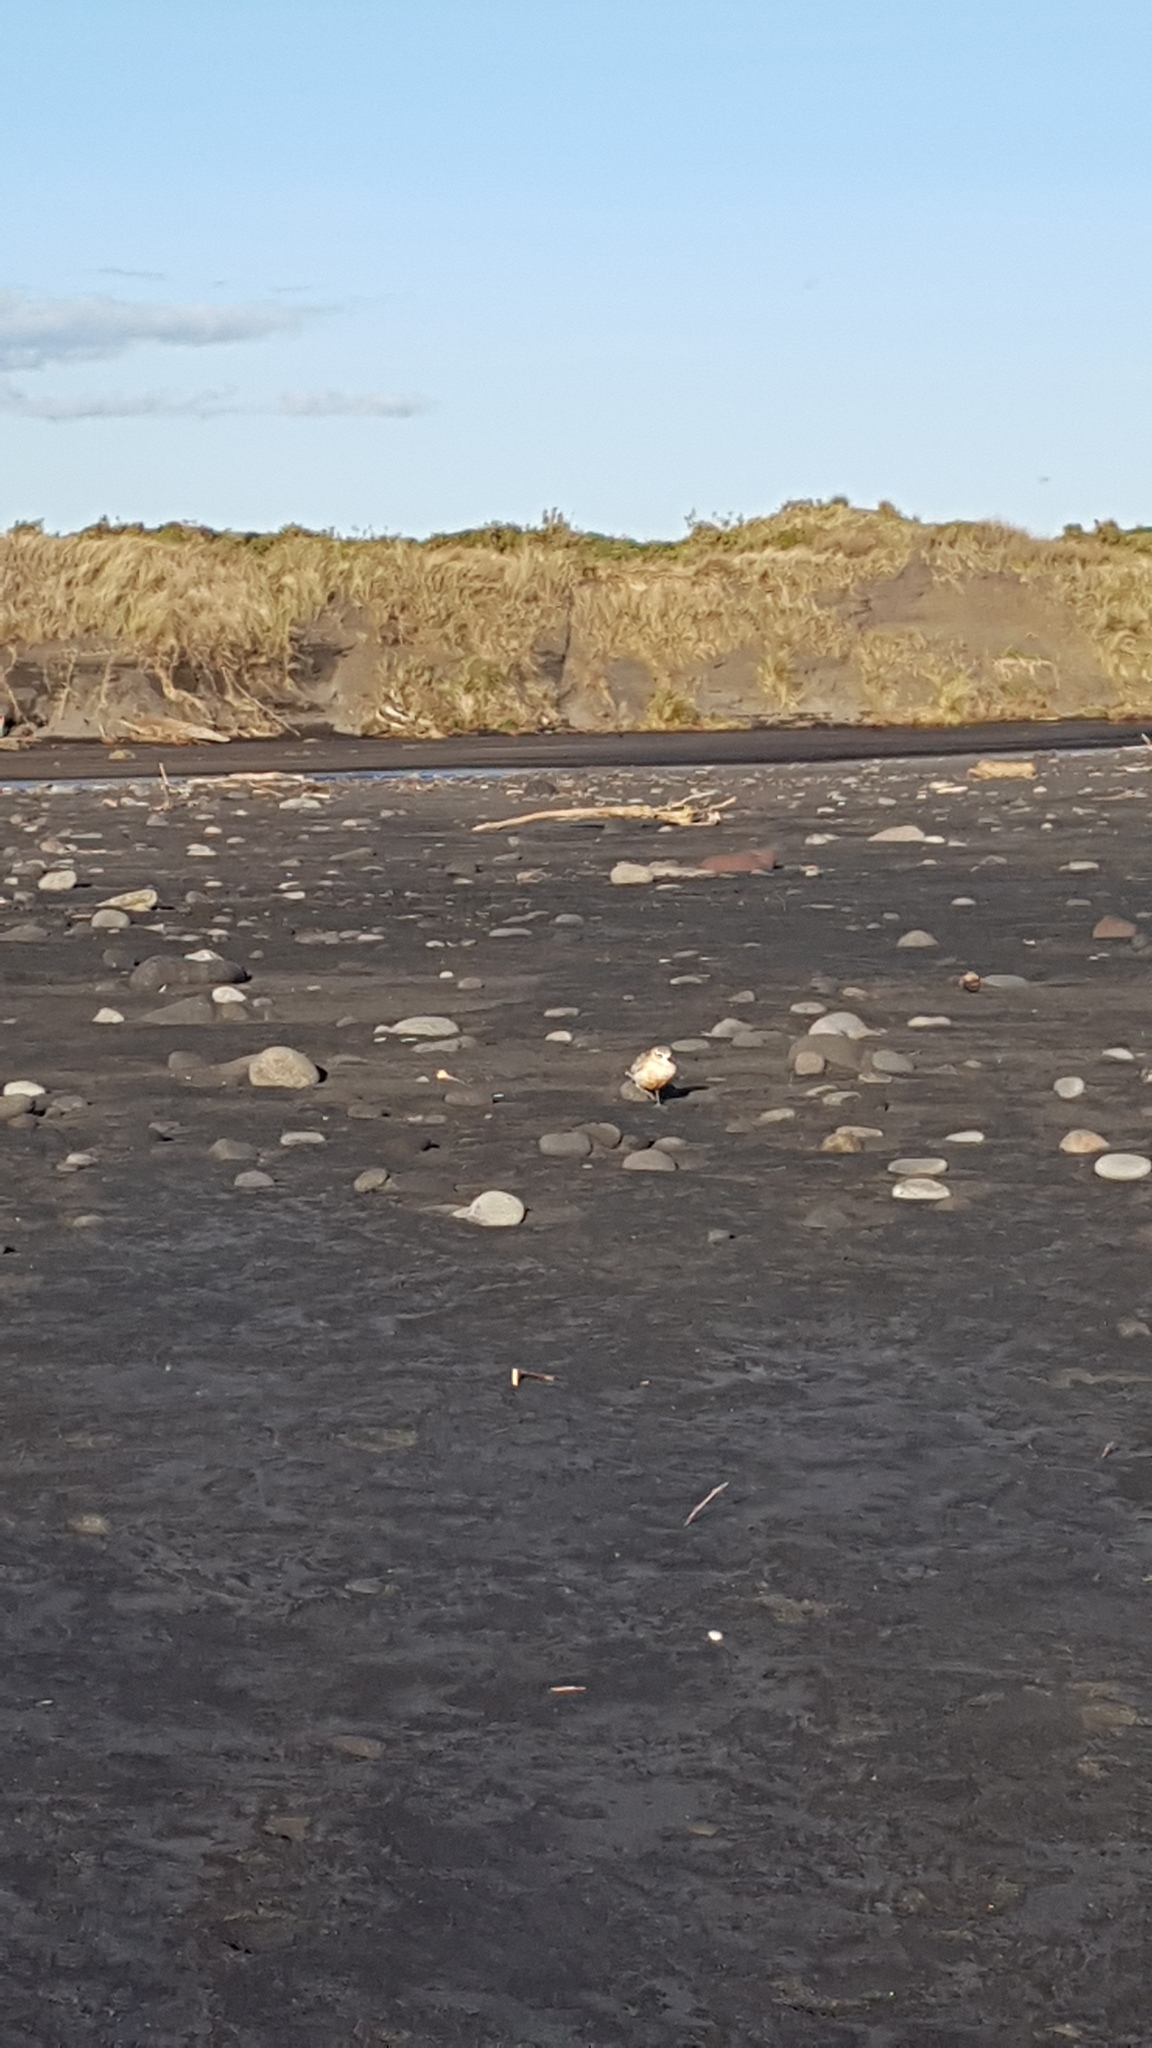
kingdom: Animalia
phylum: Chordata
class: Aves
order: Charadriiformes
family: Charadriidae
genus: Anarhynchus
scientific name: Anarhynchus
